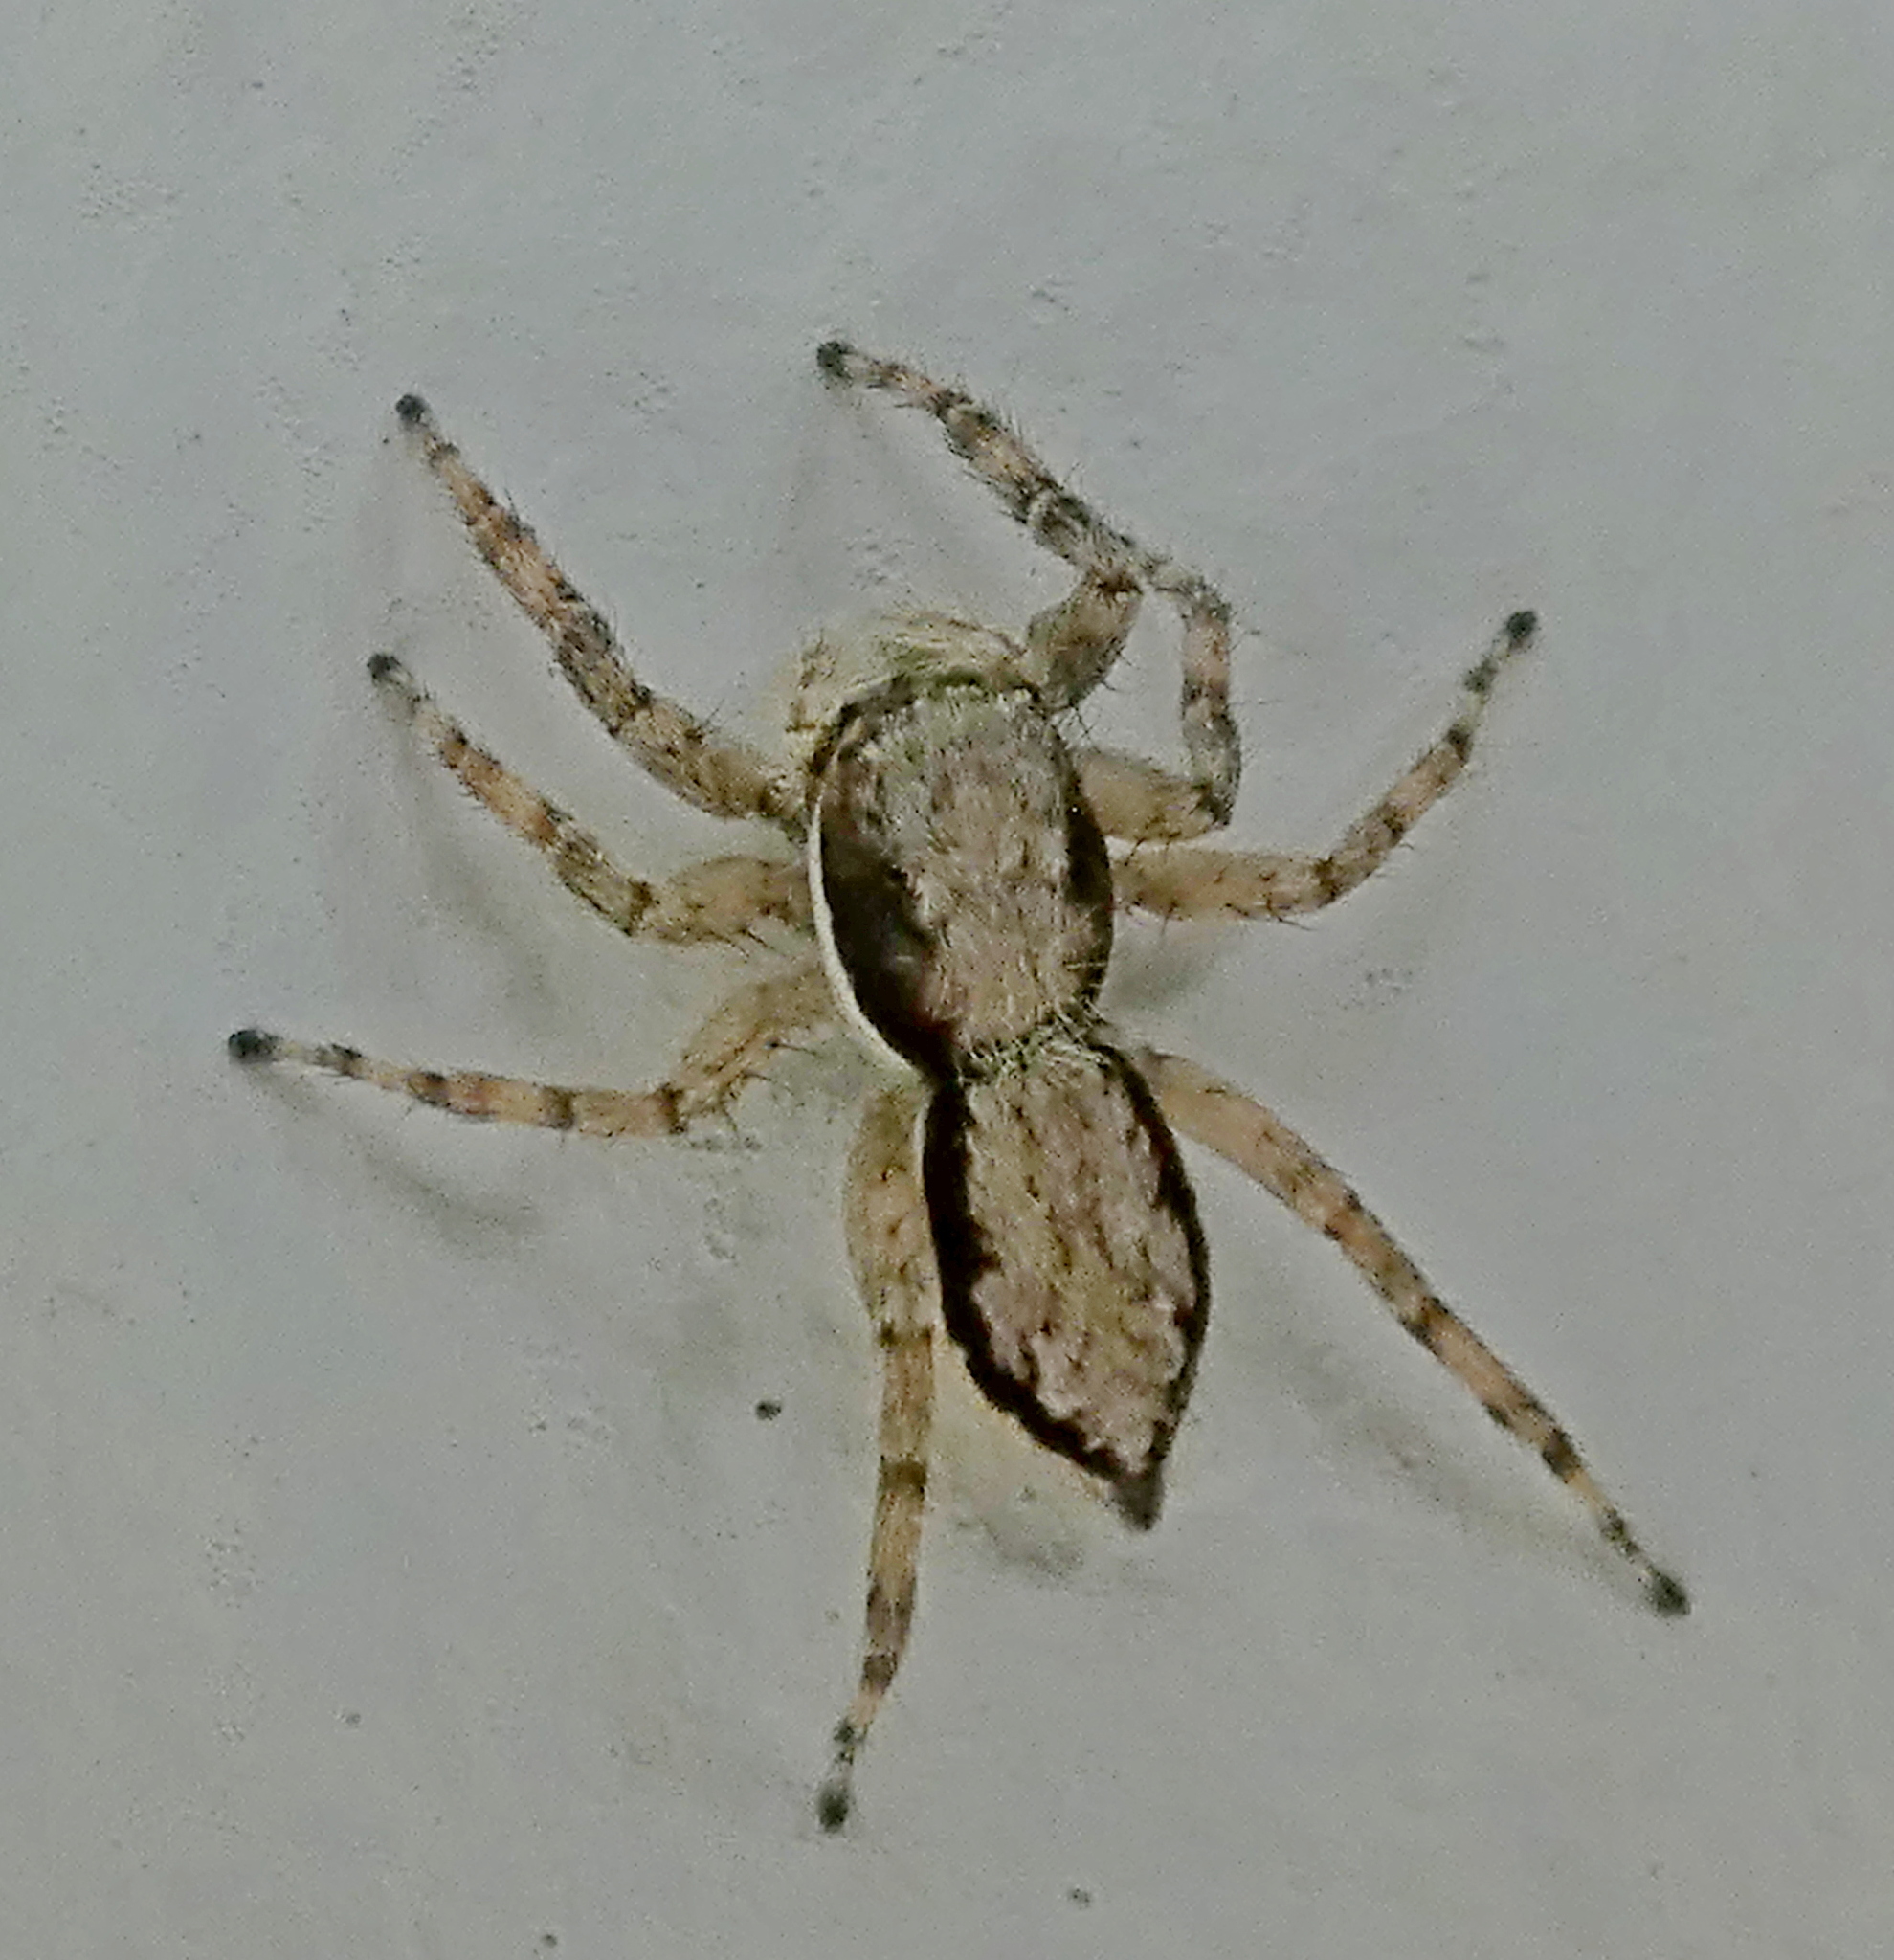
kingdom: Animalia
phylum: Arthropoda
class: Arachnida
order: Araneae
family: Salticidae
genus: Menemerus
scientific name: Menemerus bivittatus
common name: Gray wall jumper
